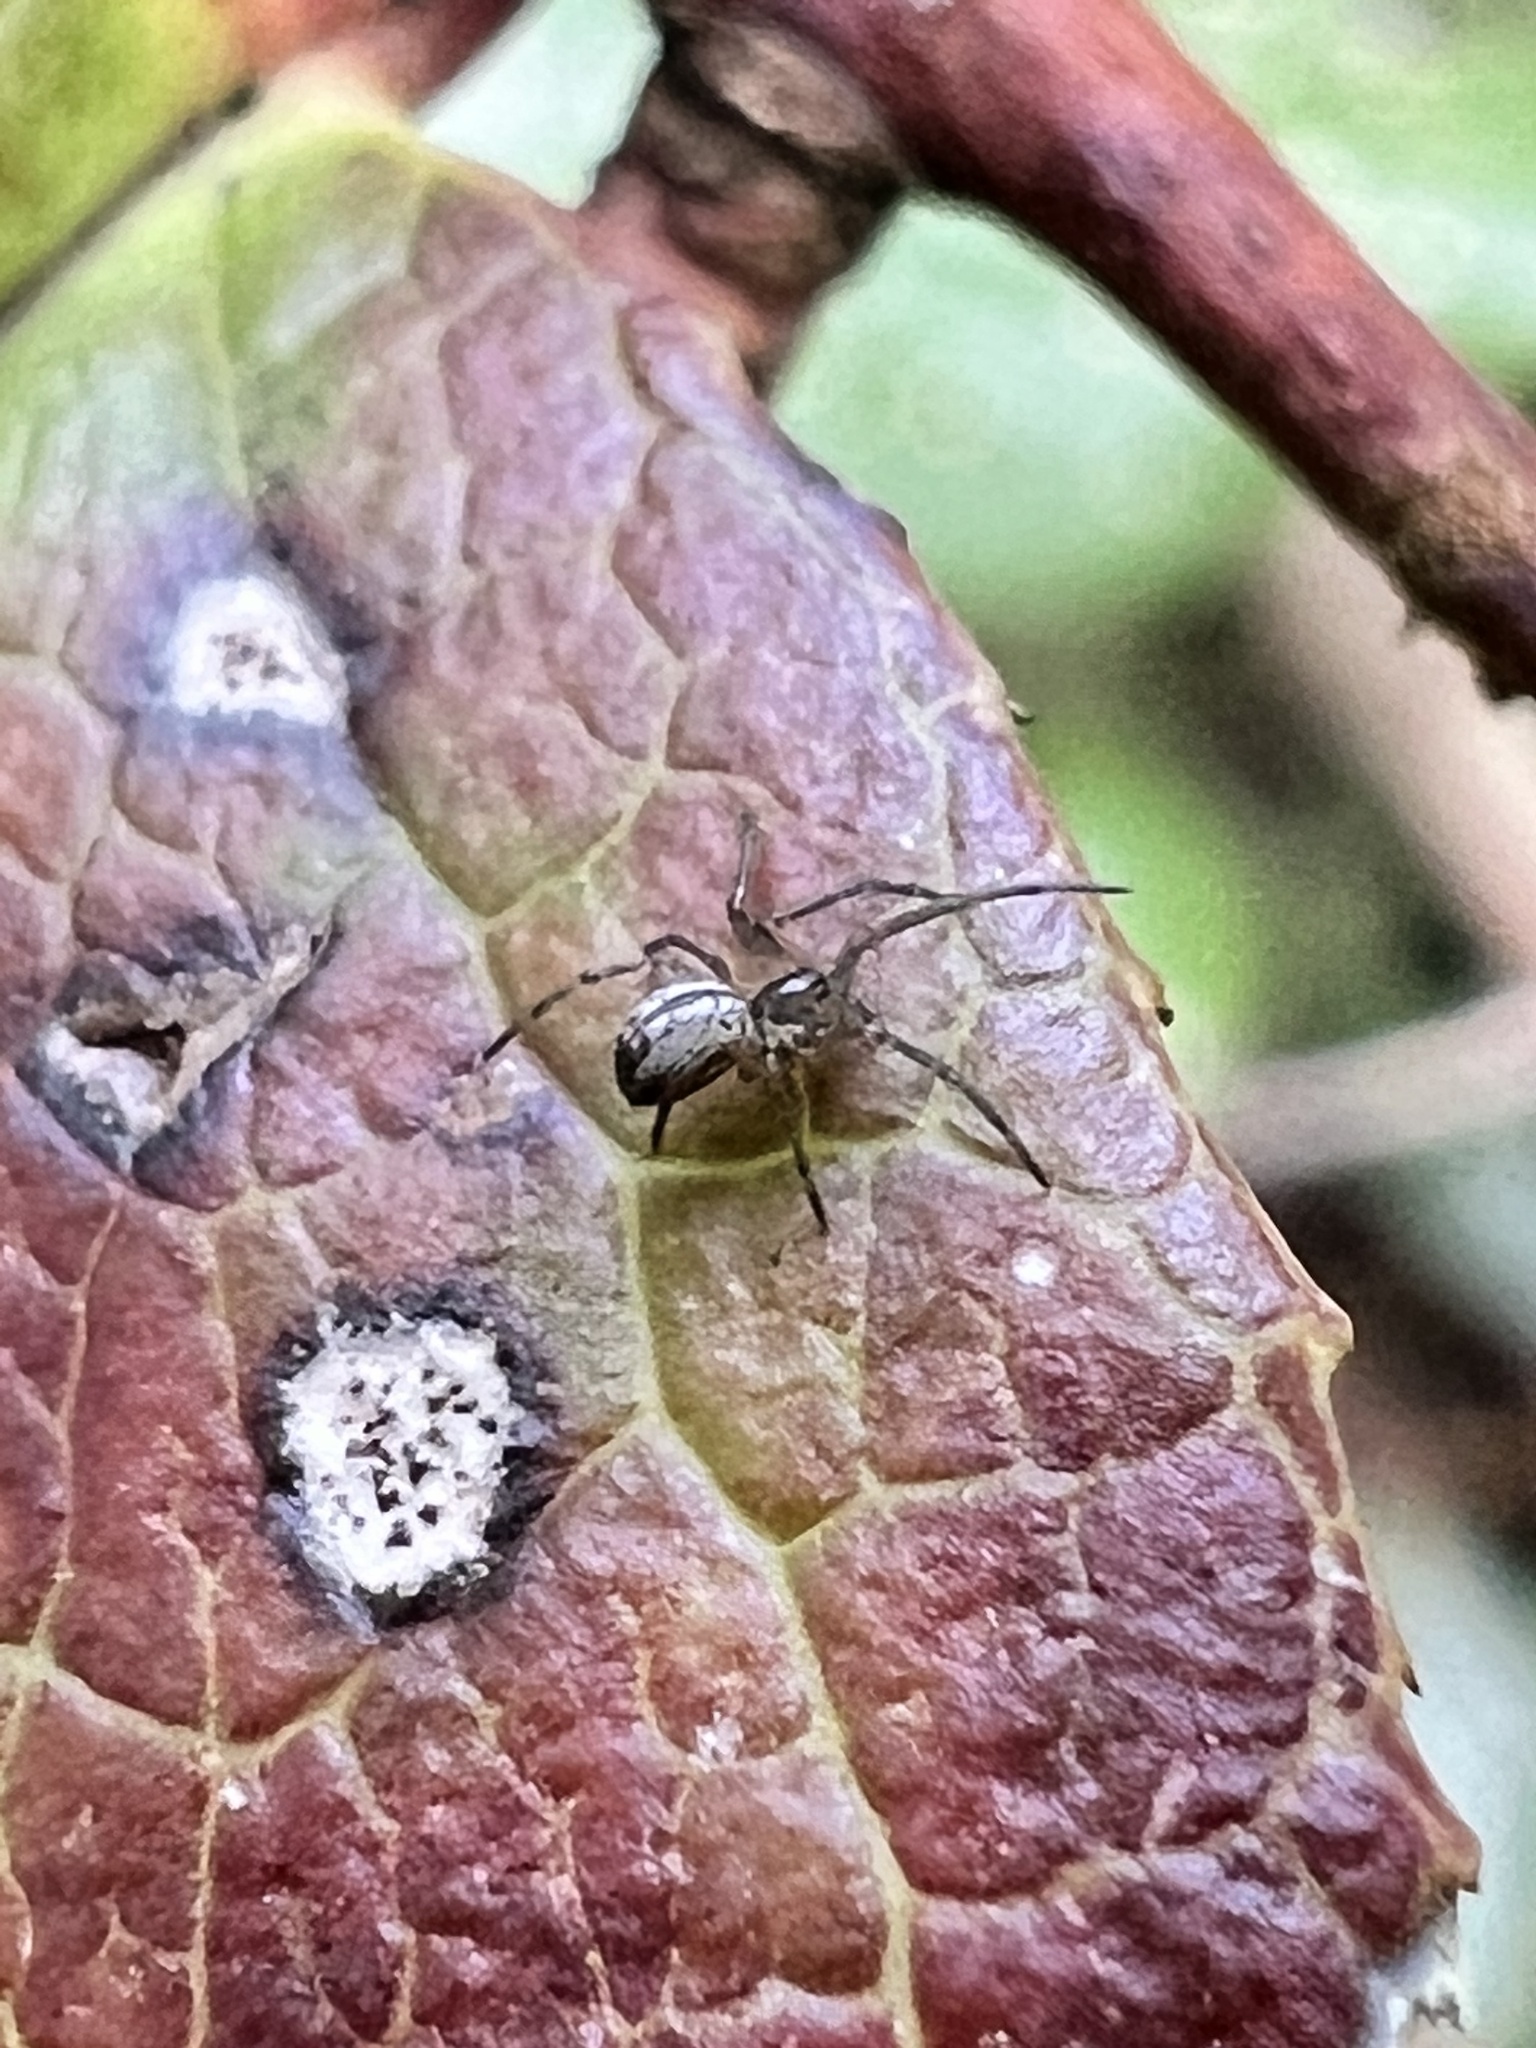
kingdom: Animalia
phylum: Arthropoda
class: Arachnida
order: Araneae
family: Linyphiidae
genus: Neriene
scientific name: Neriene litigiosa
